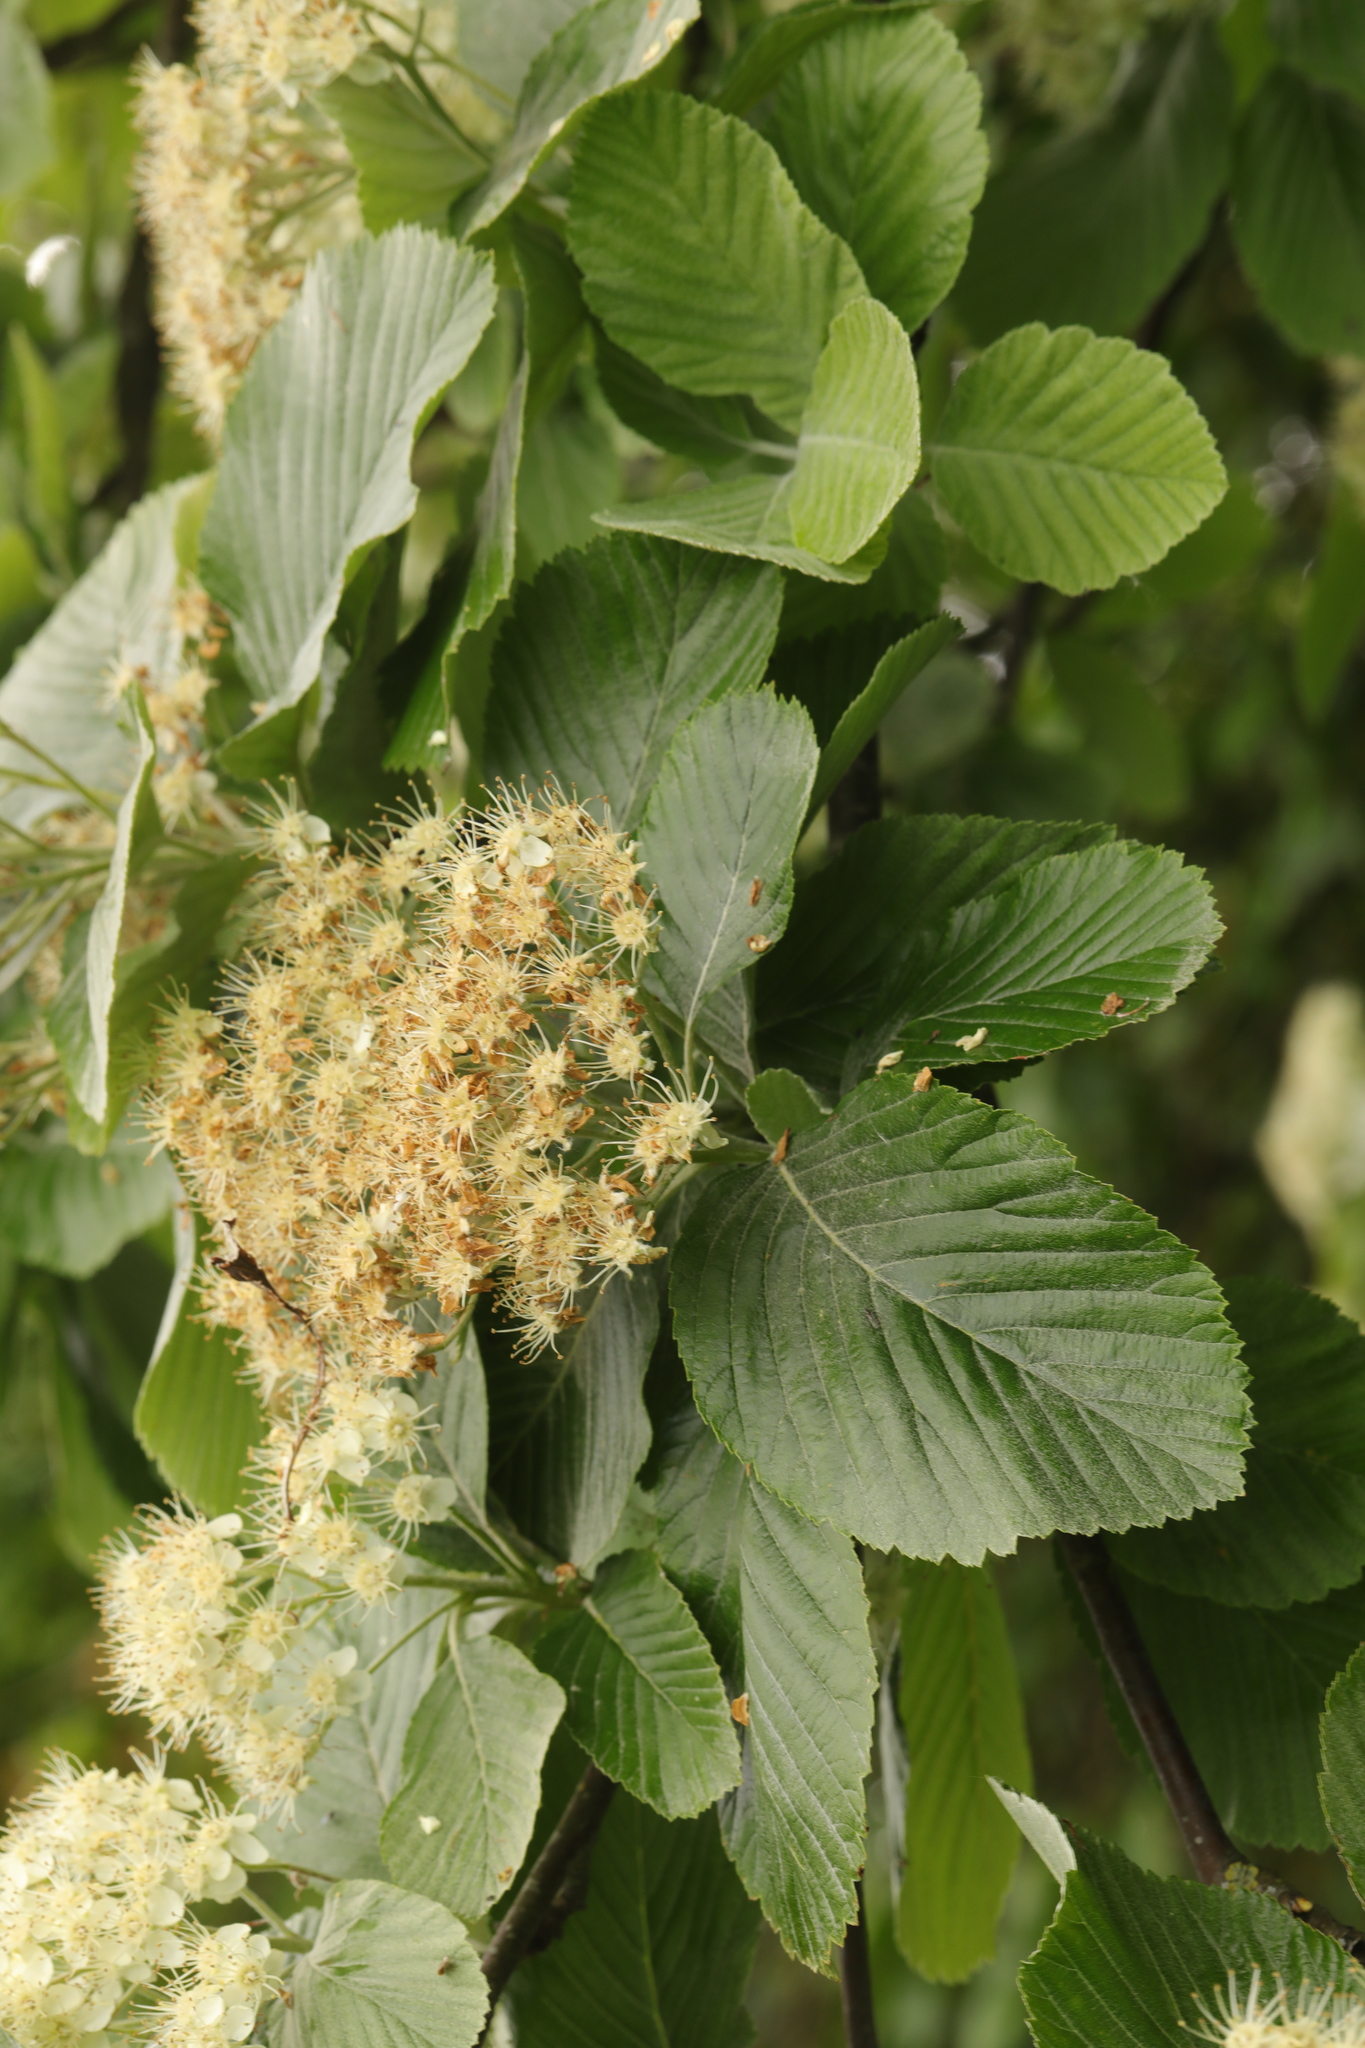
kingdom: Plantae
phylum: Tracheophyta
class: Magnoliopsida
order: Rosales
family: Rosaceae
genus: Aria
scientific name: Aria edulis
